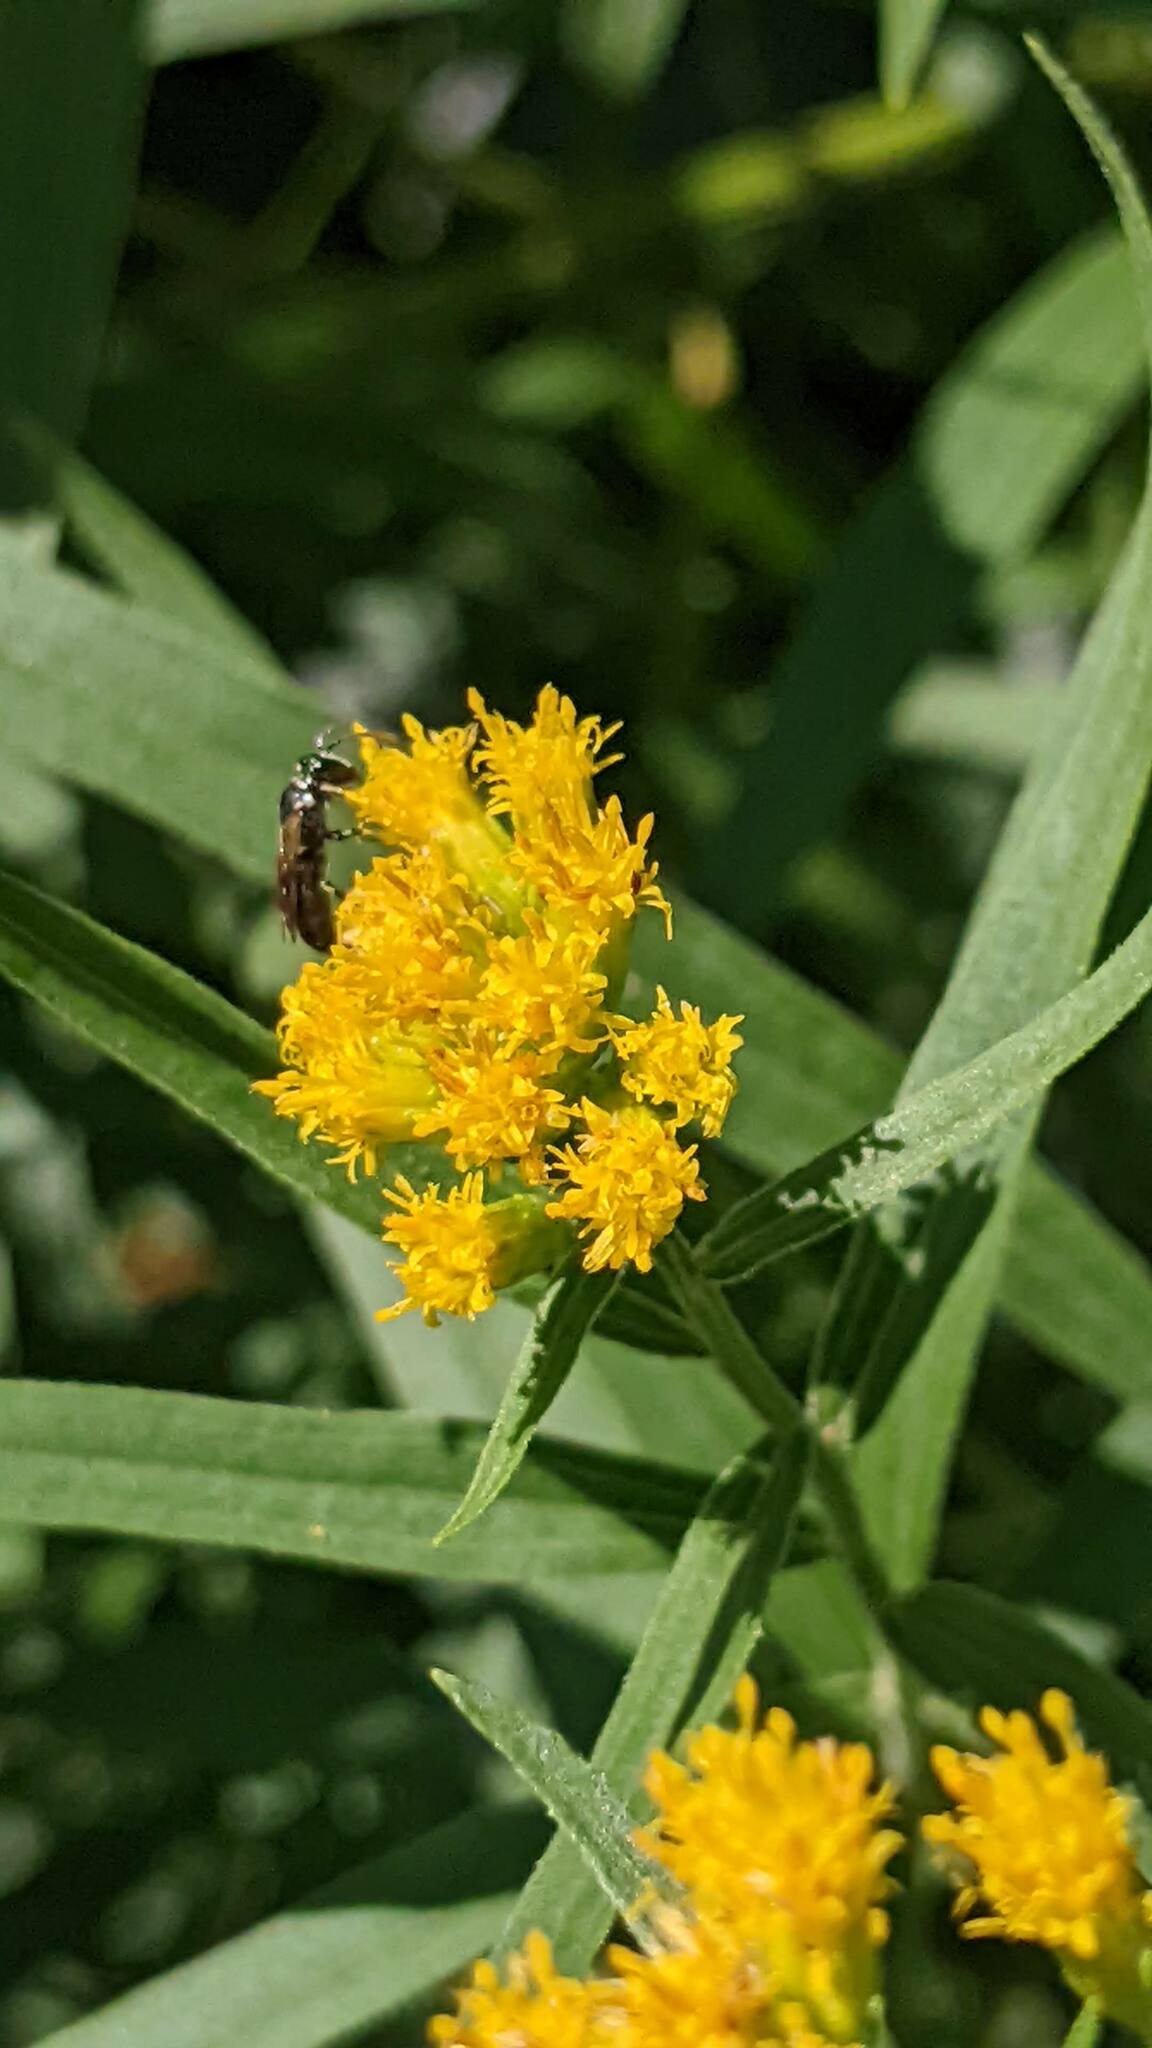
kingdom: Animalia
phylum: Arthropoda
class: Insecta
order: Hymenoptera
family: Colletidae
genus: Hylaeus
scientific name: Hylaeus leptocephalus
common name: Slender-faced masked bee
